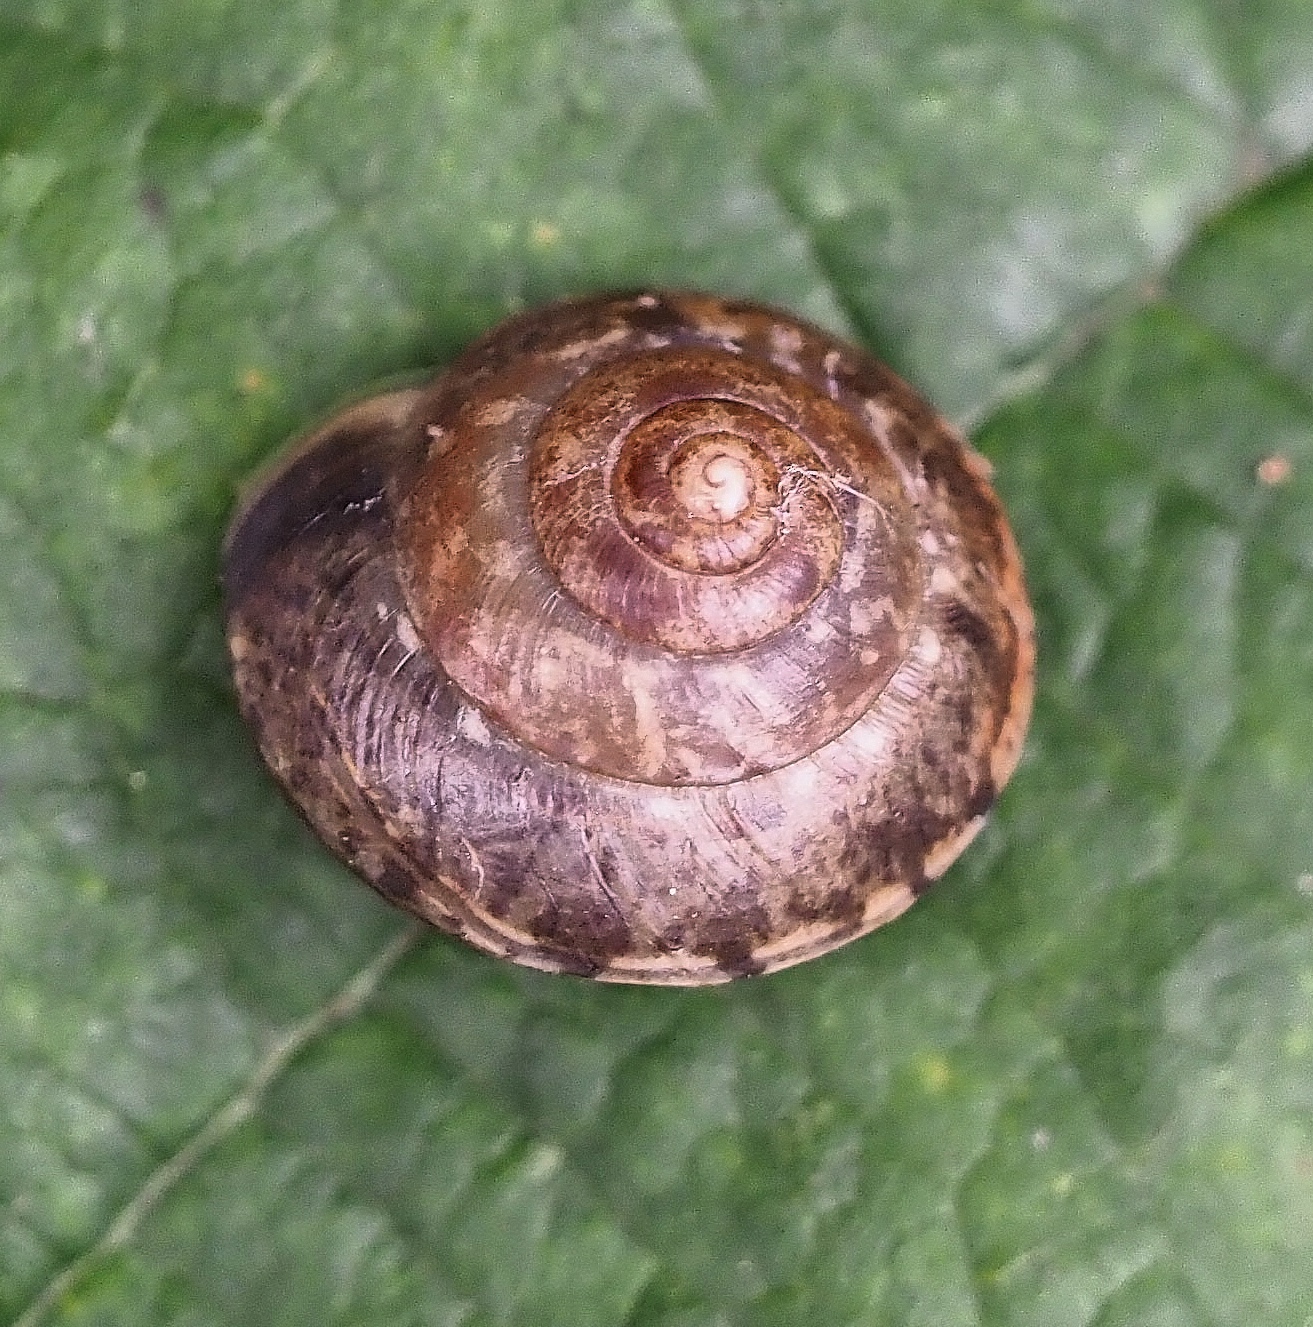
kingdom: Animalia
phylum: Mollusca
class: Gastropoda
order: Stylommatophora
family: Hygromiidae
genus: Hygromia
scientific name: Hygromia cinctella
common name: Girdled snail
